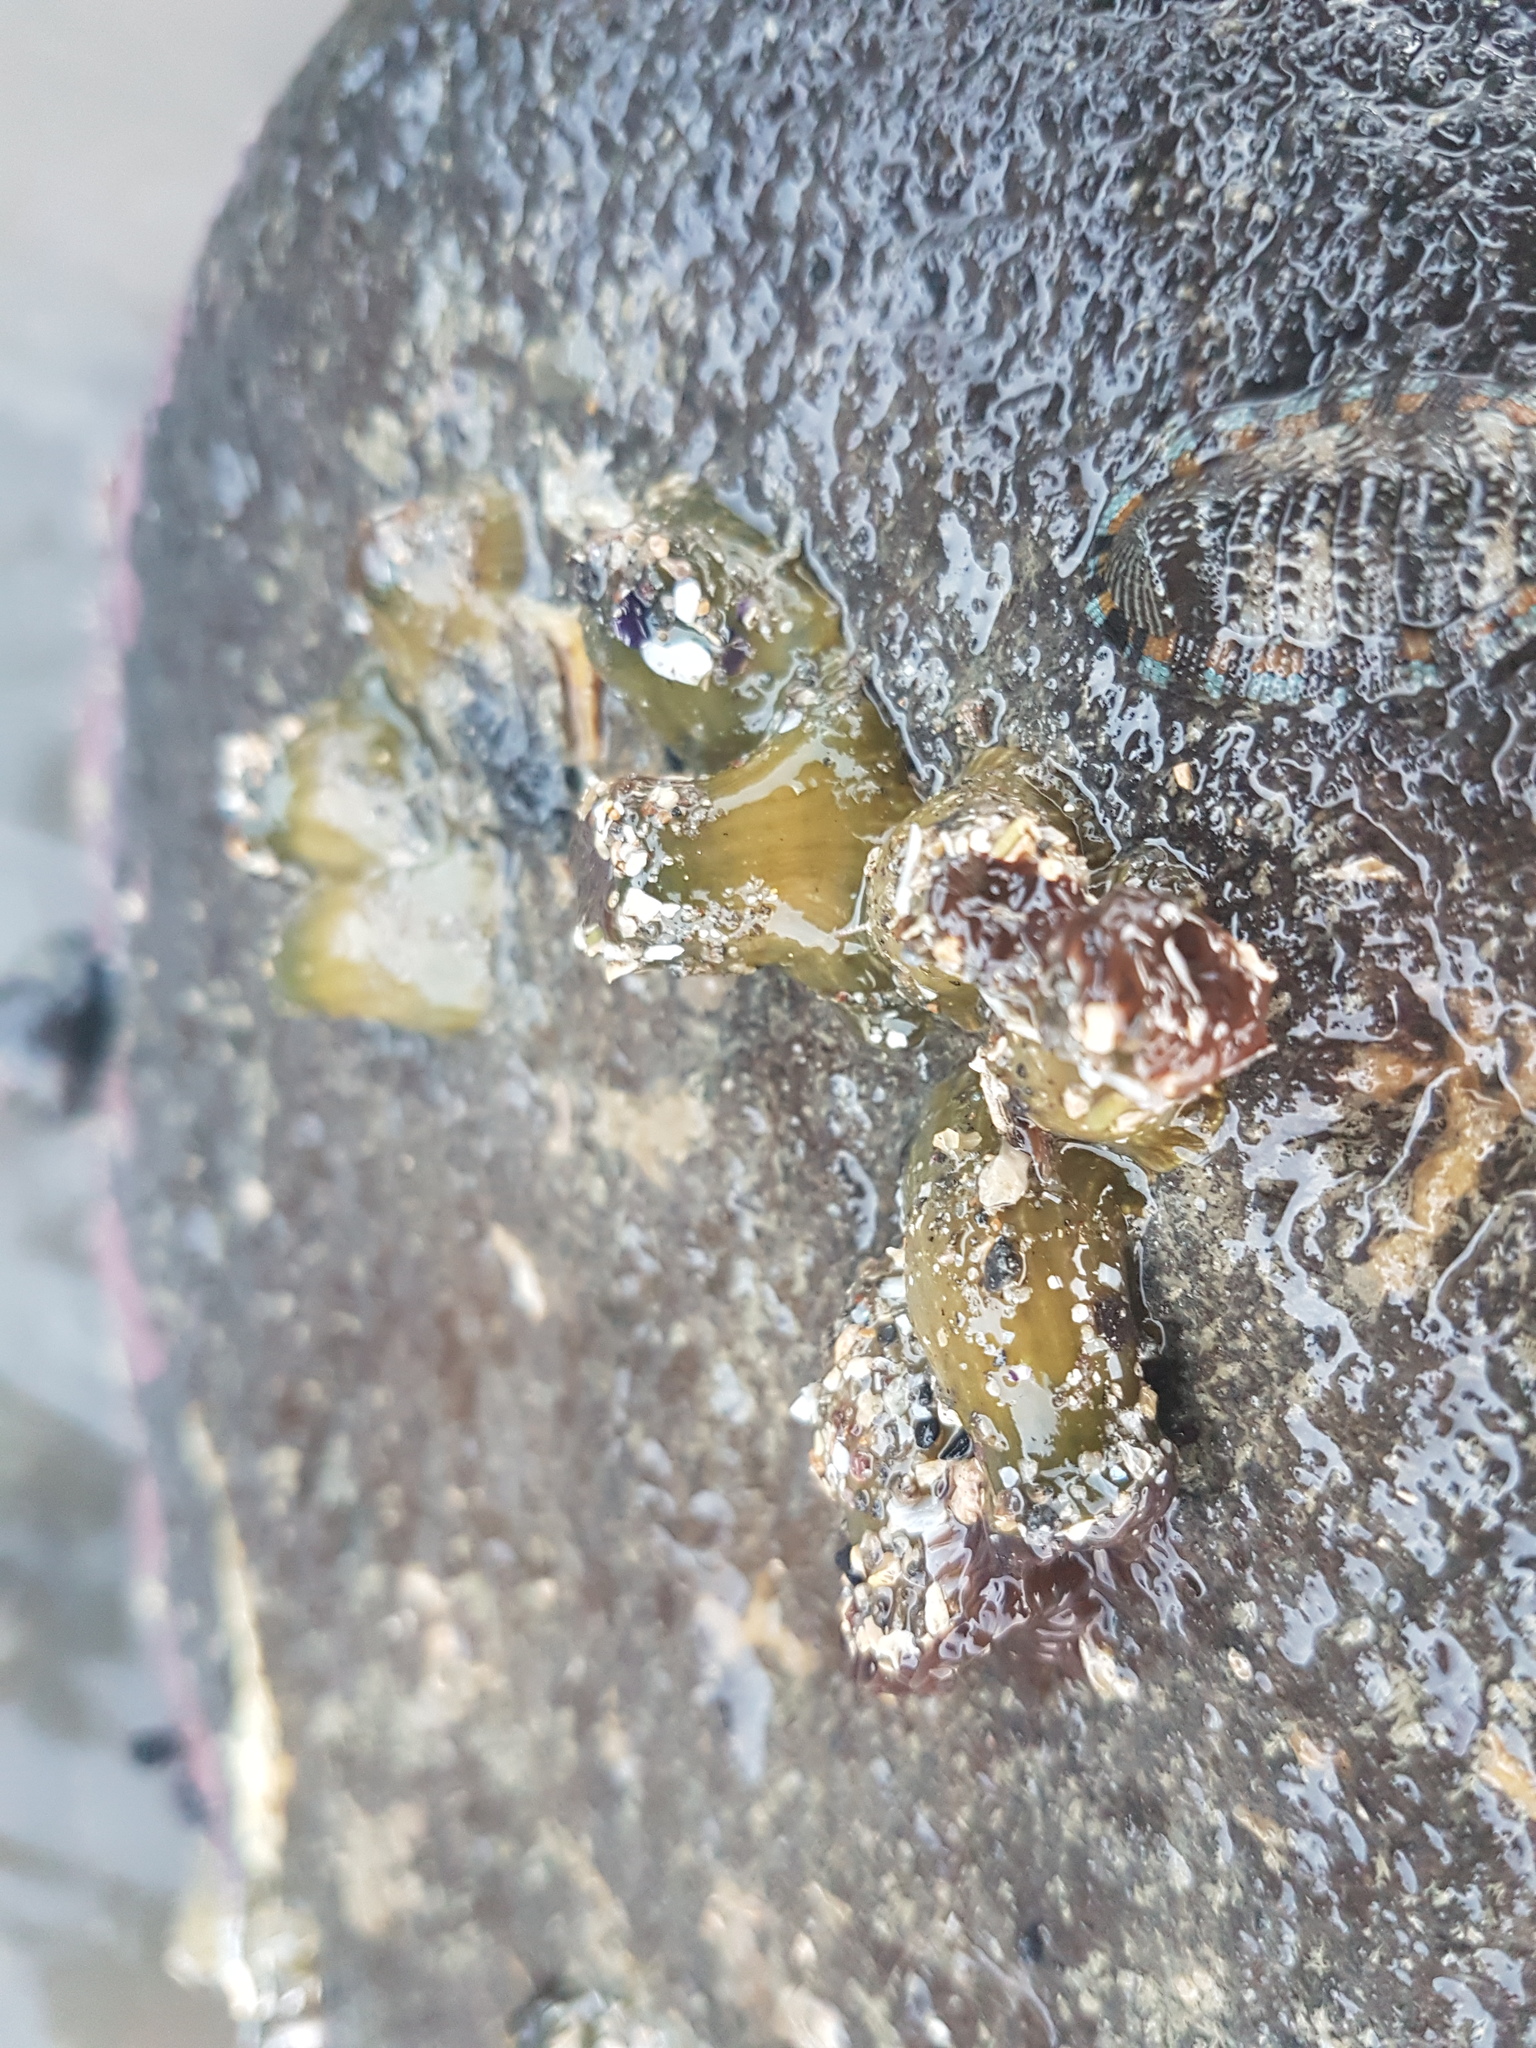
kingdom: Animalia
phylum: Cnidaria
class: Anthozoa
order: Actiniaria
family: Actiniidae
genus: Isactinia
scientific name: Isactinia olivacea
